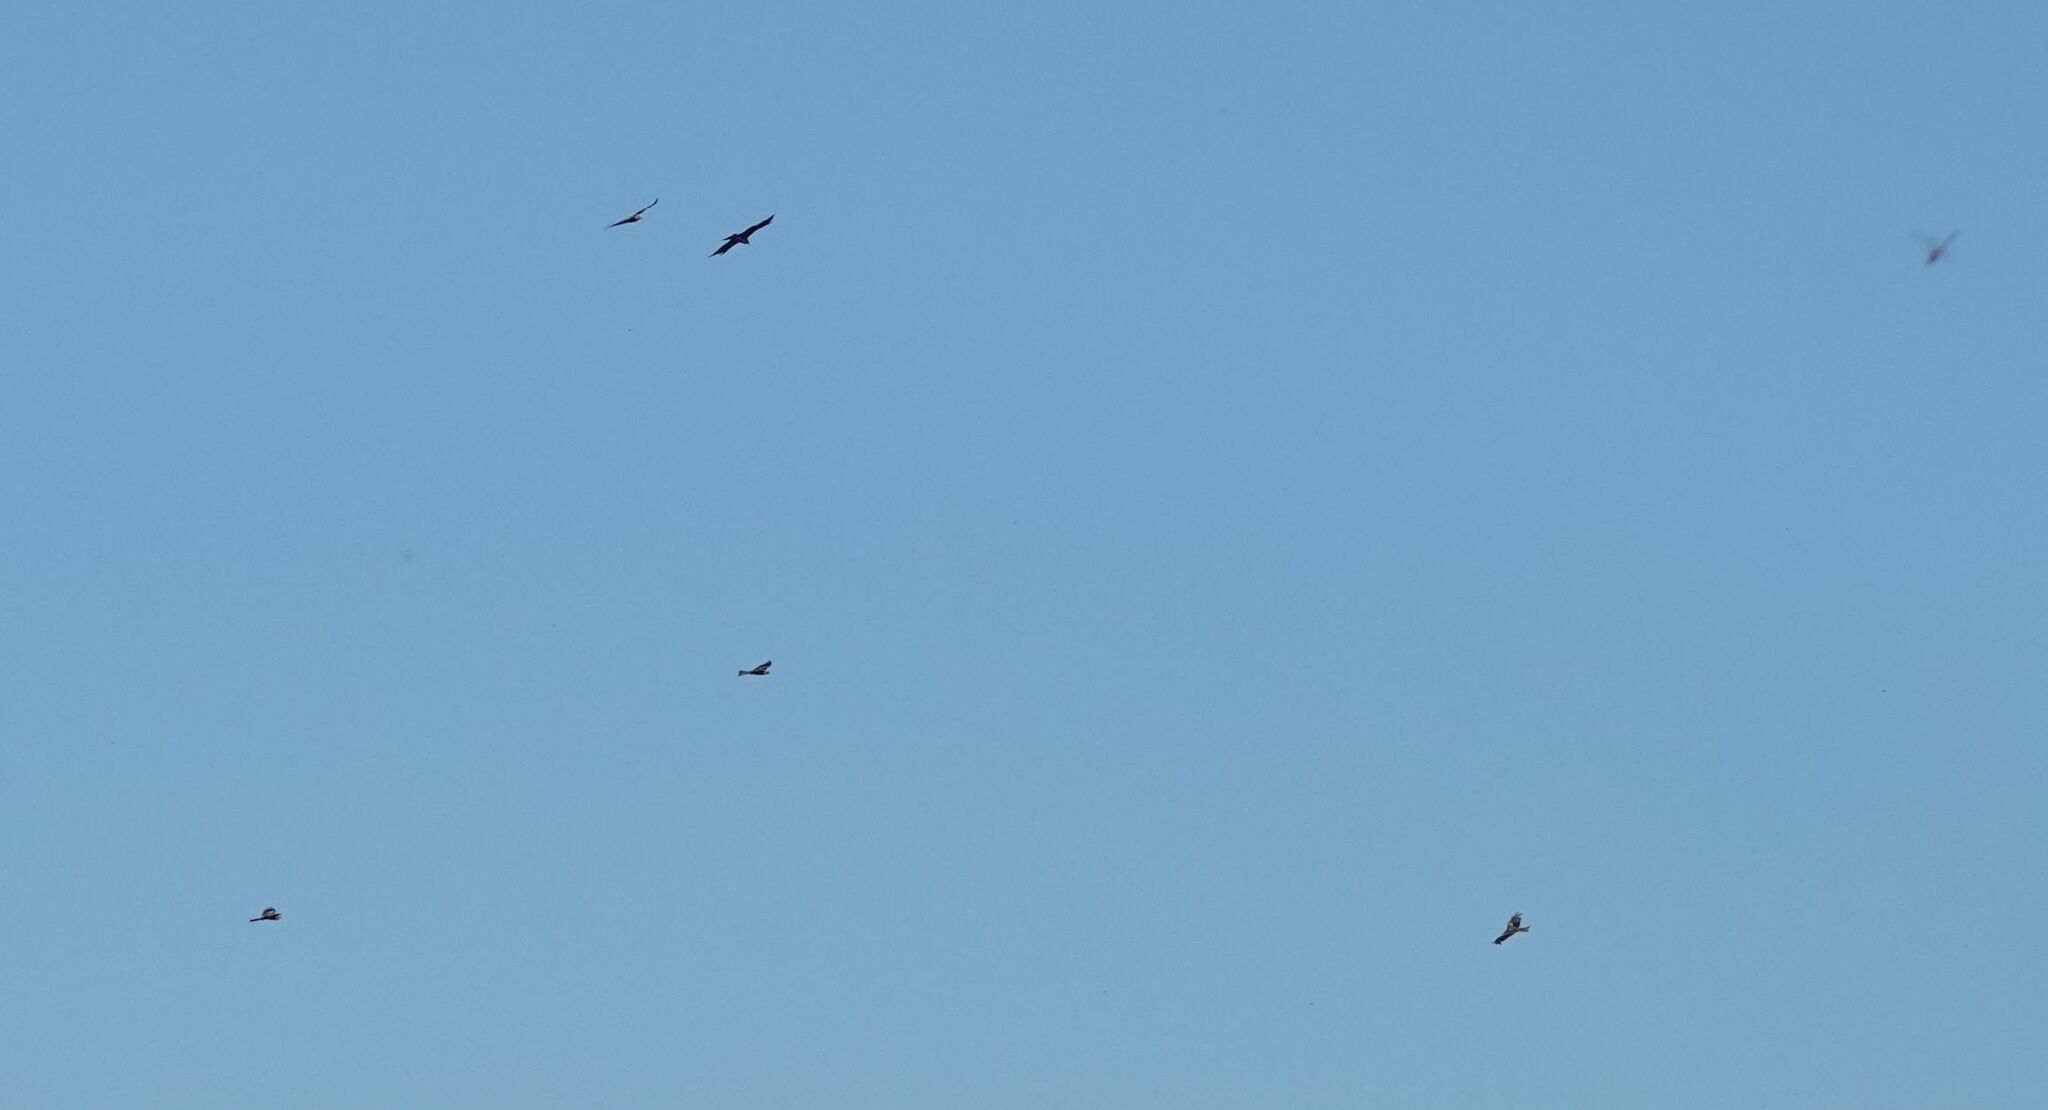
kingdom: Animalia
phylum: Chordata
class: Aves
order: Accipitriformes
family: Accipitridae
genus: Milvus
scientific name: Milvus migrans
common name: Black kite
